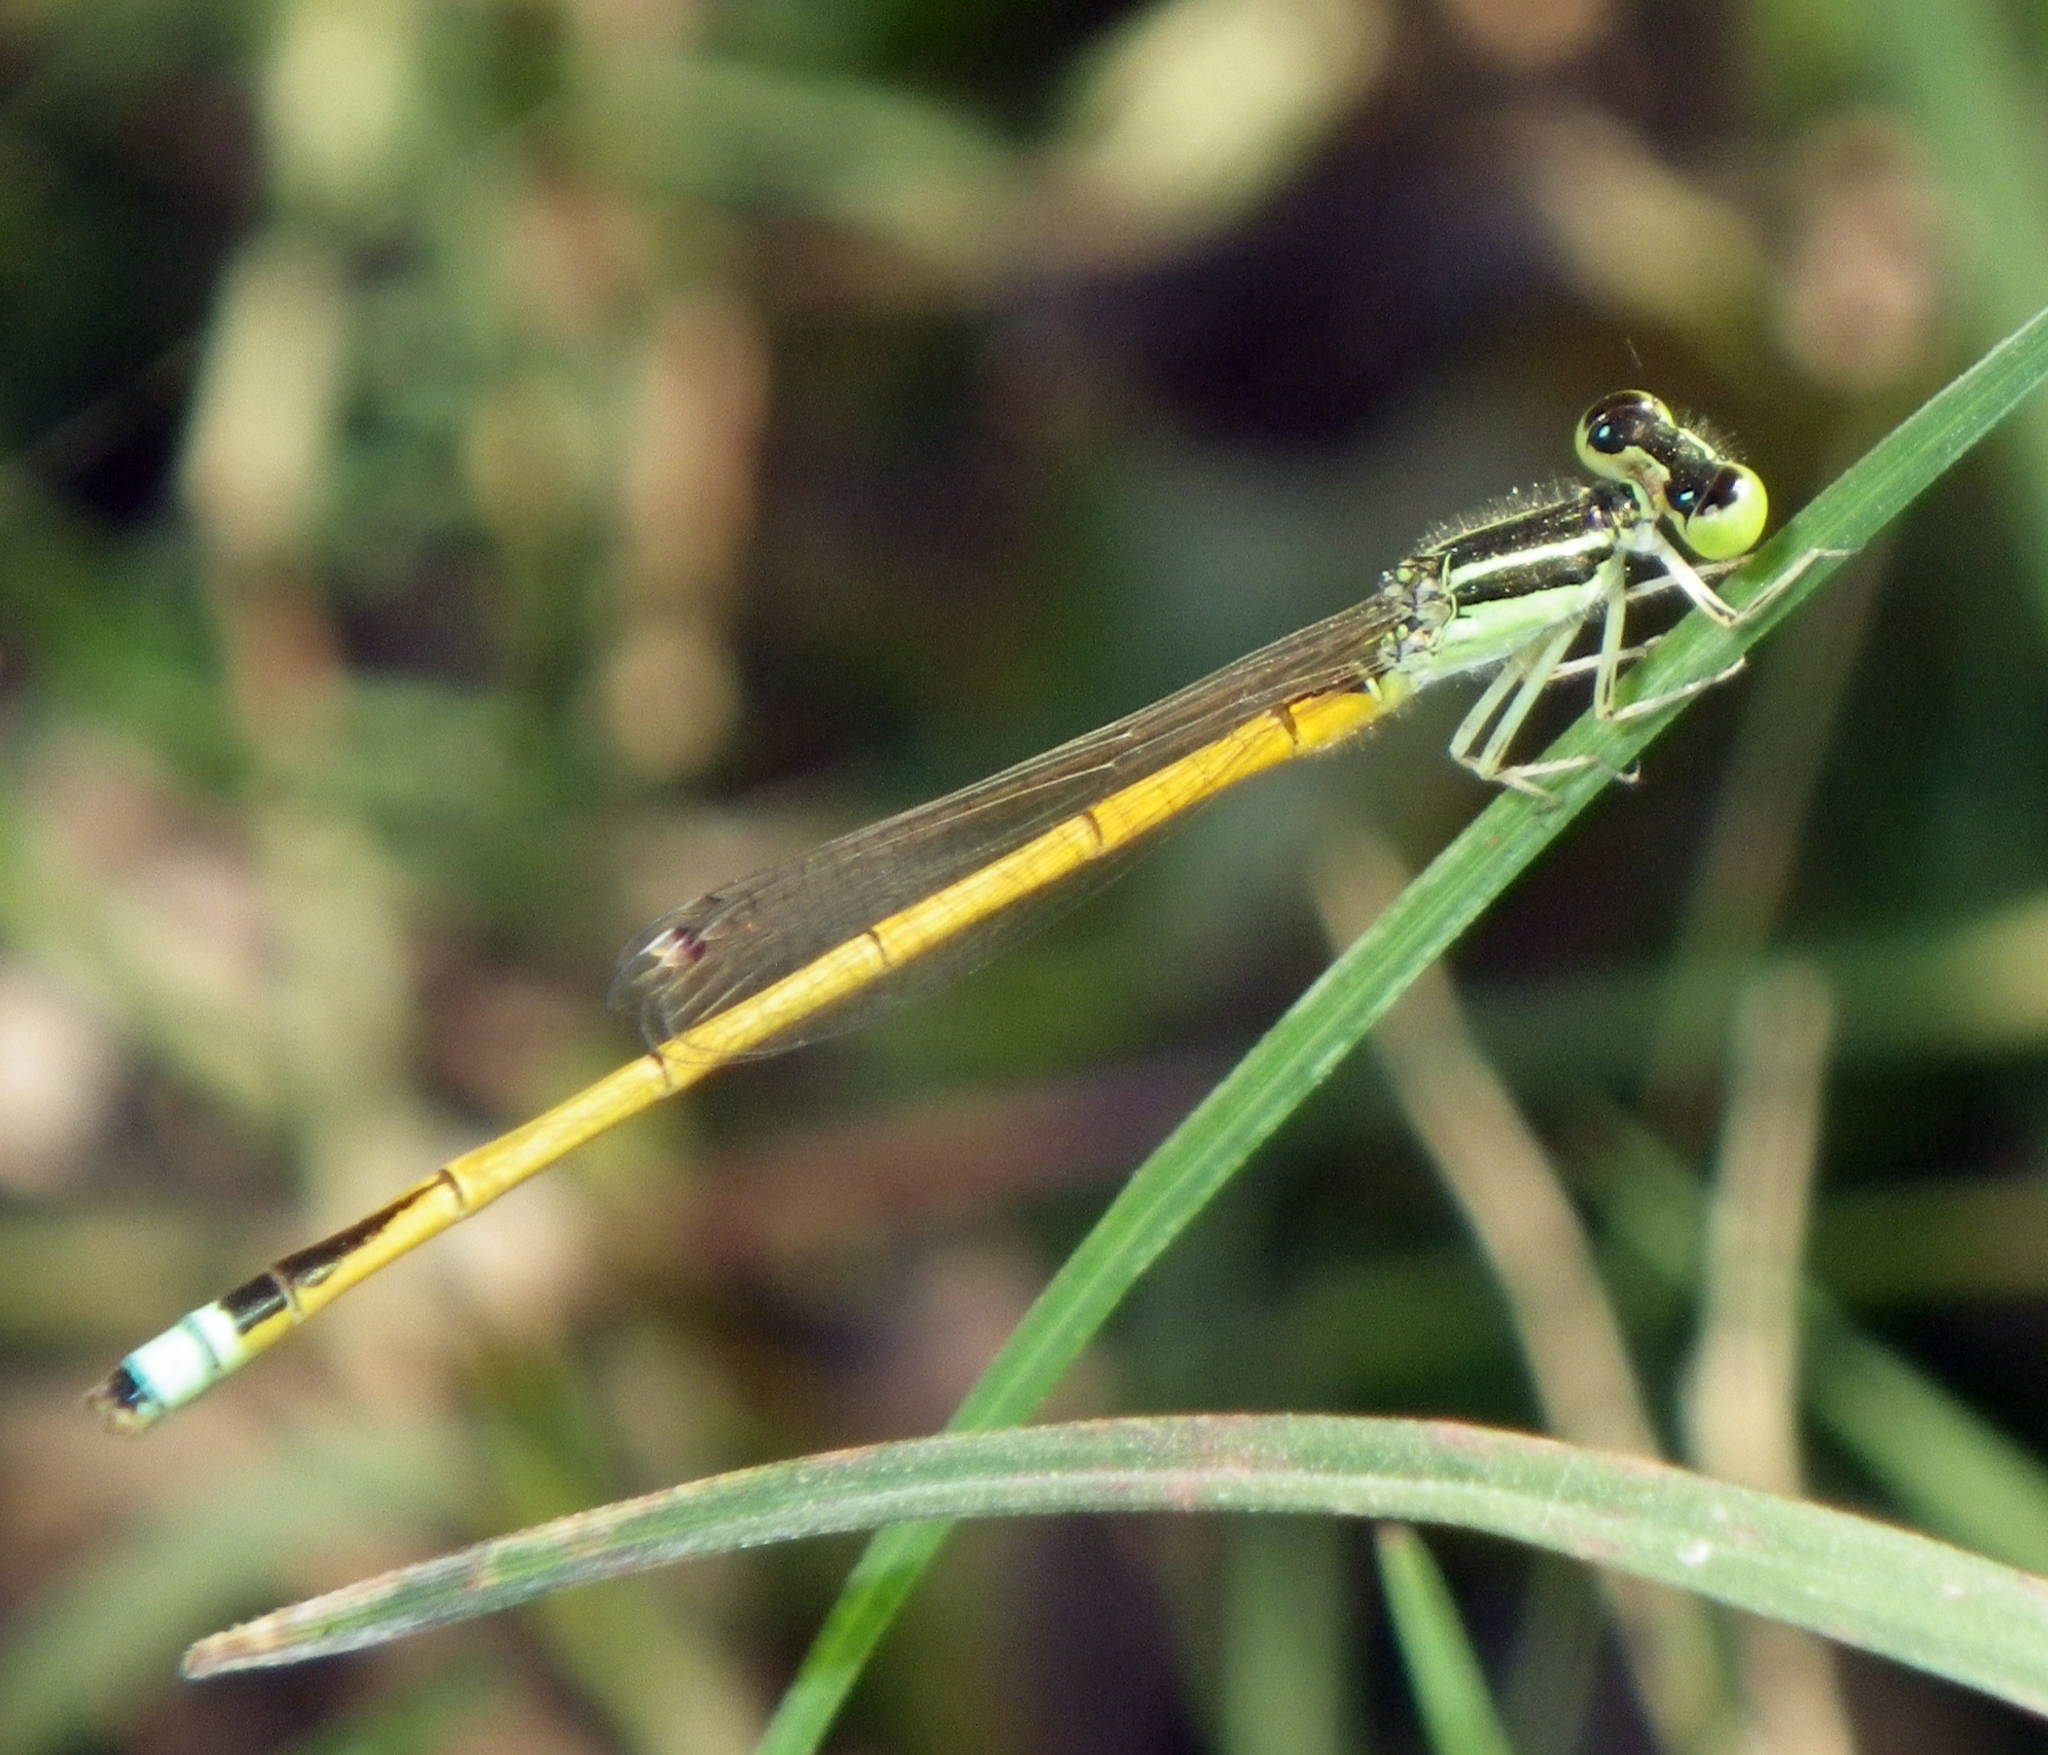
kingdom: Animalia
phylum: Arthropoda
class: Insecta
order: Odonata
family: Coenagrionidae
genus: Ischnura
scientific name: Ischnura rubilio
